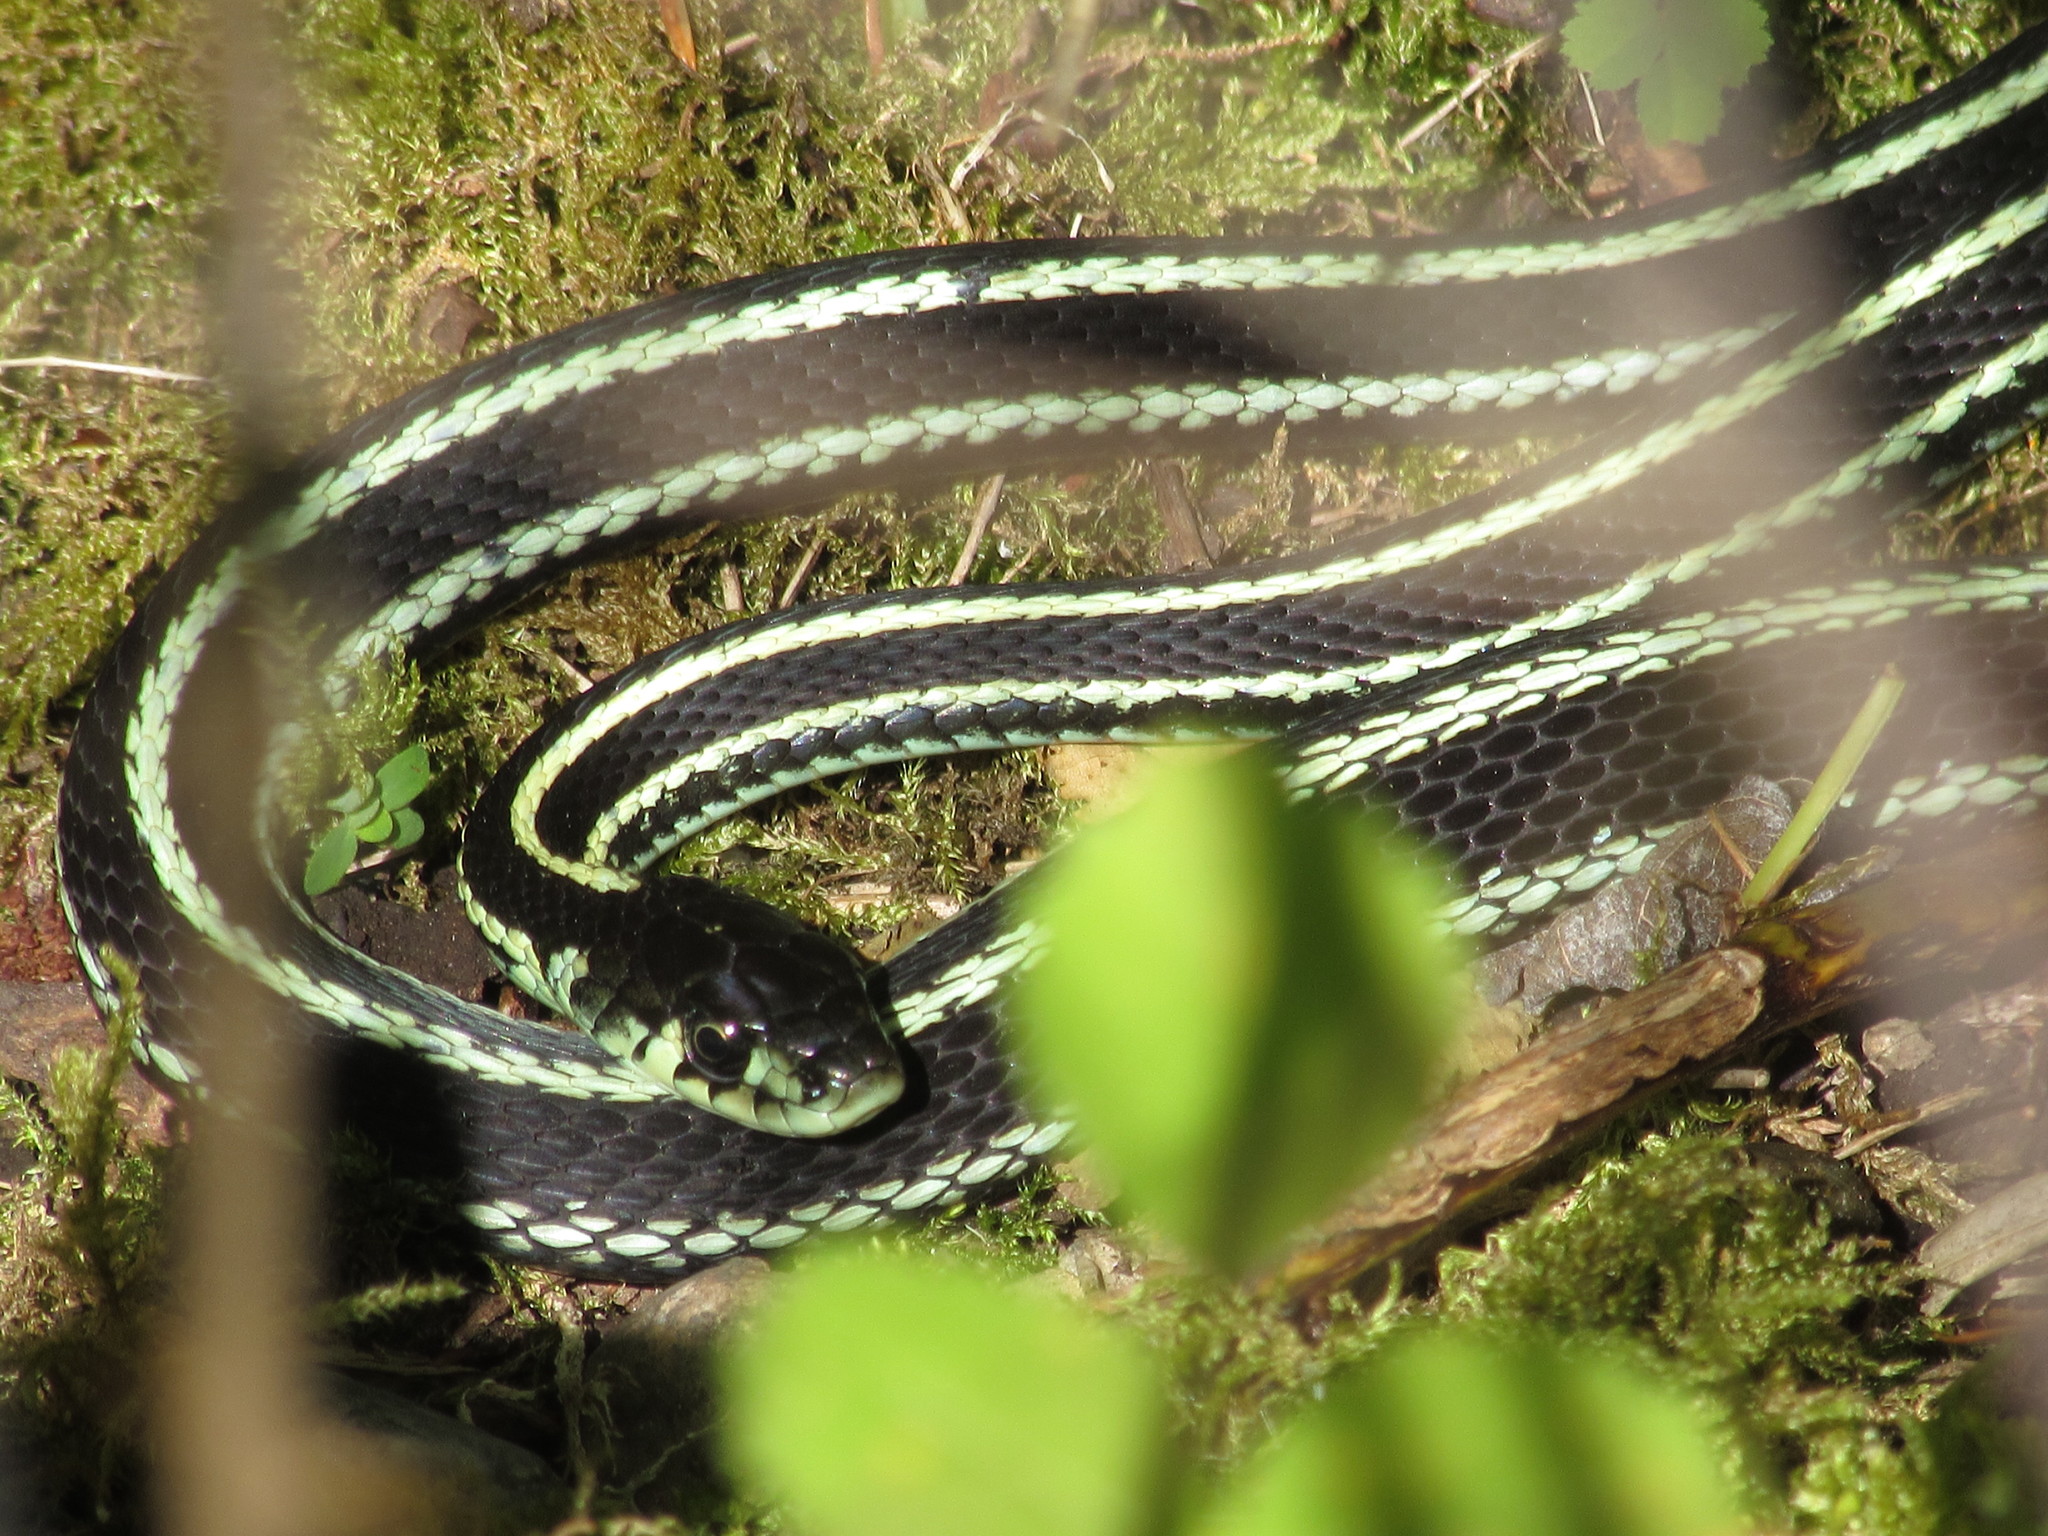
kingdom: Animalia
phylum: Chordata
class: Squamata
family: Colubridae
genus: Thamnophis
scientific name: Thamnophis sirtalis
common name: Common garter snake
